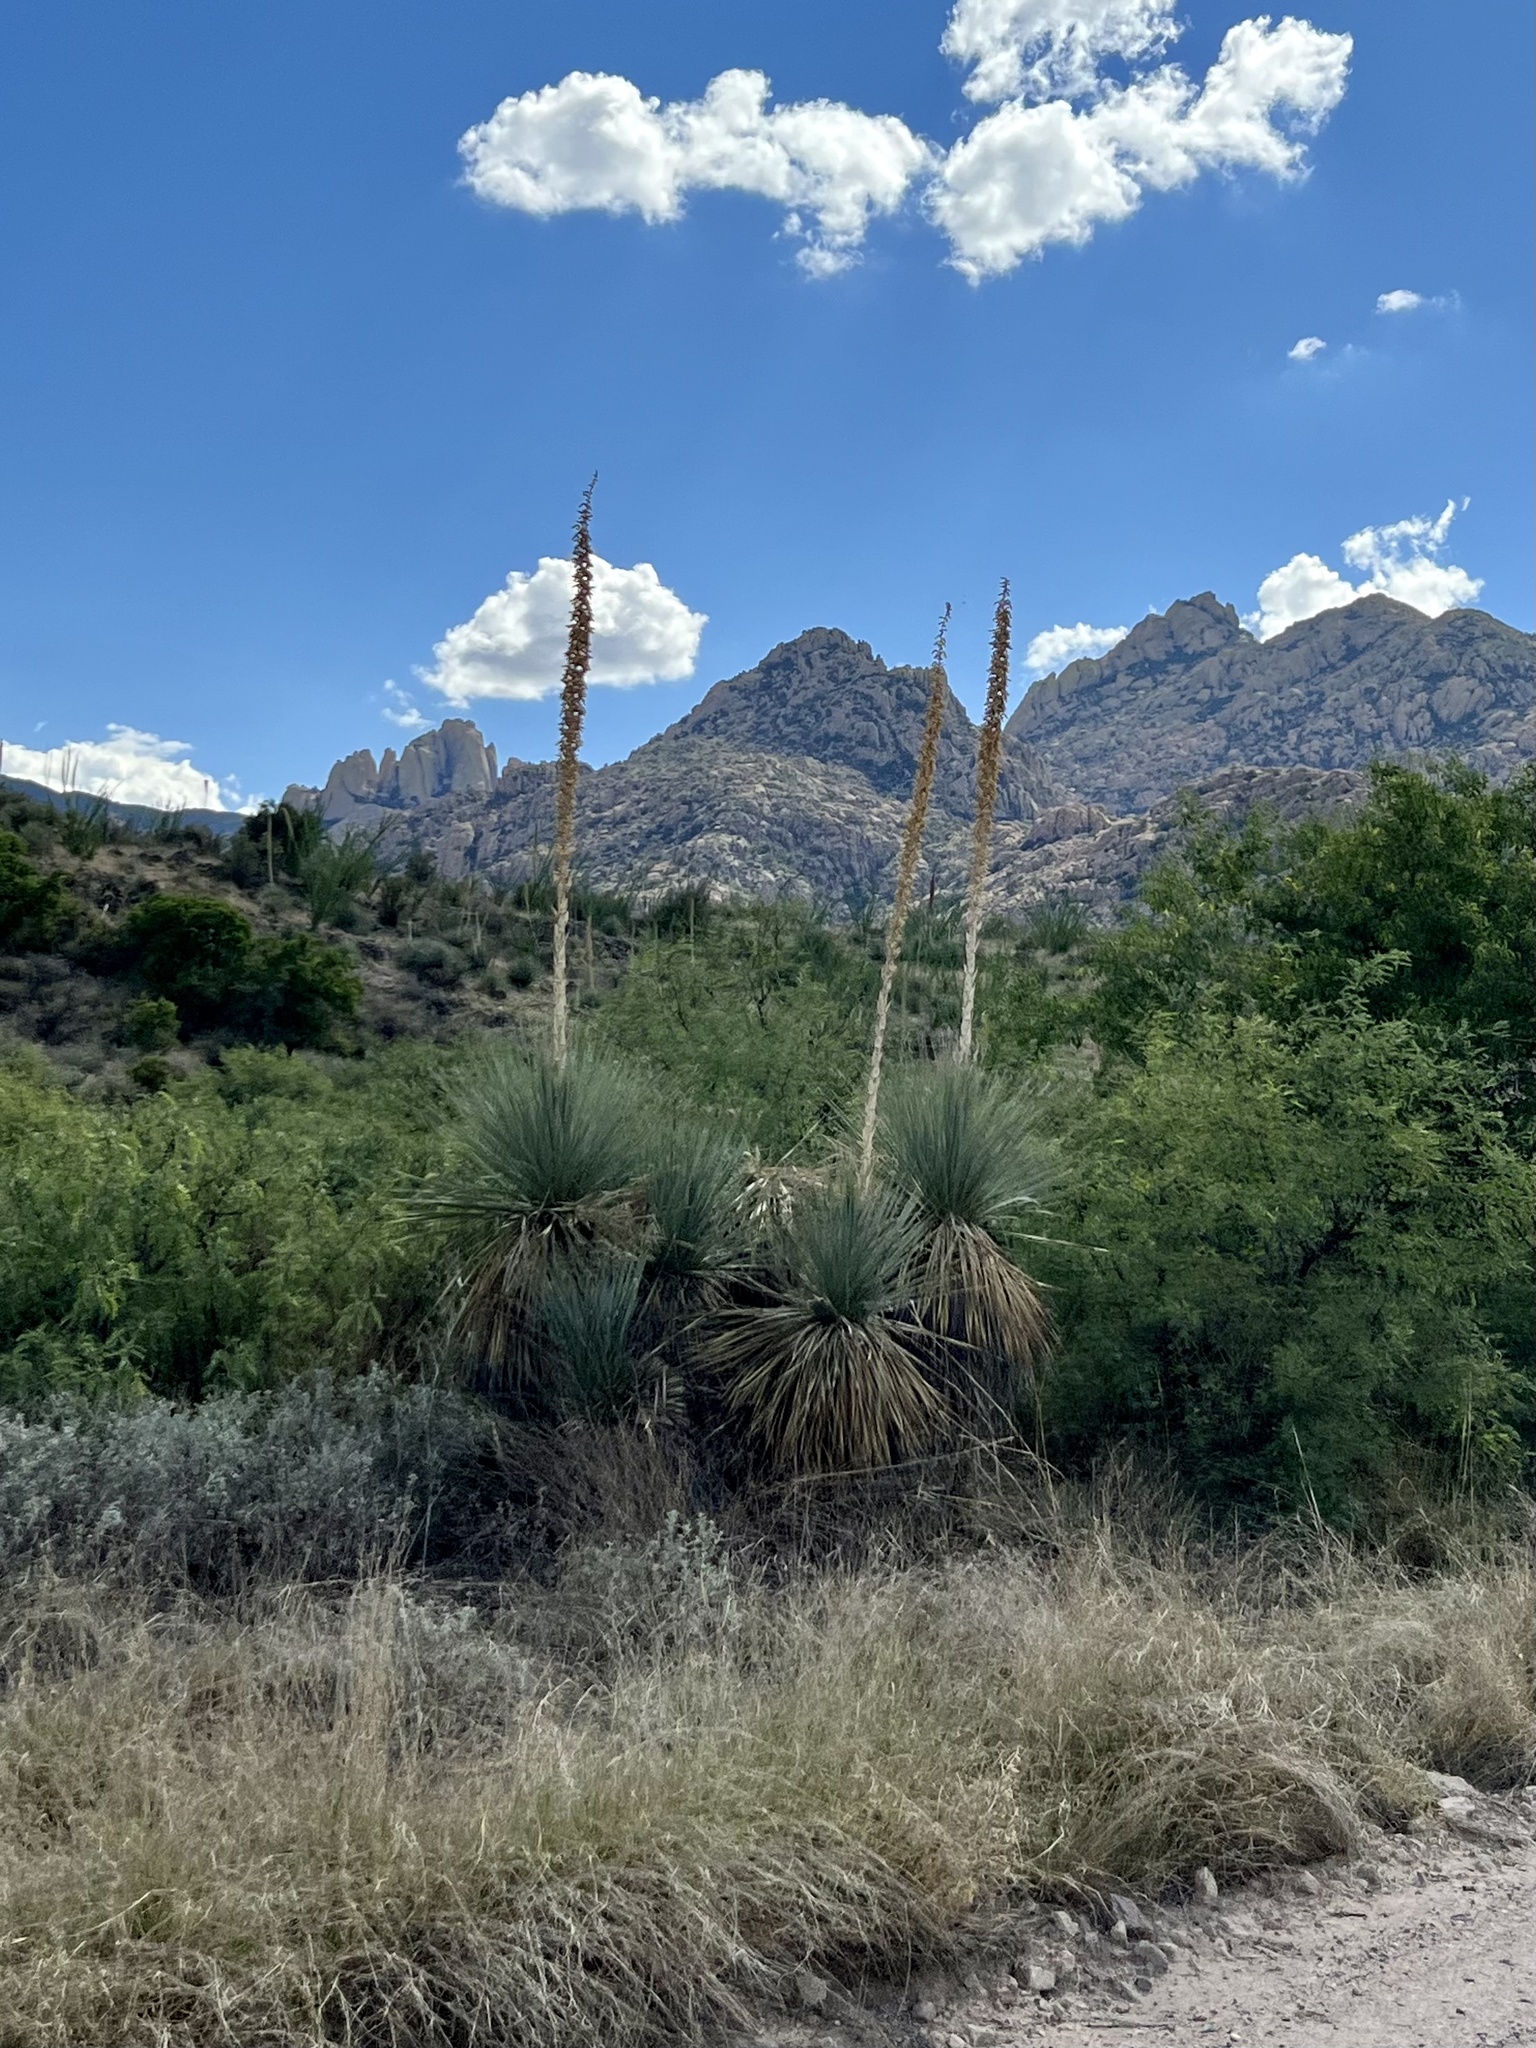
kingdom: Plantae
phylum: Tracheophyta
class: Liliopsida
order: Asparagales
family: Asparagaceae
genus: Dasylirion
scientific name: Dasylirion wheeleri
